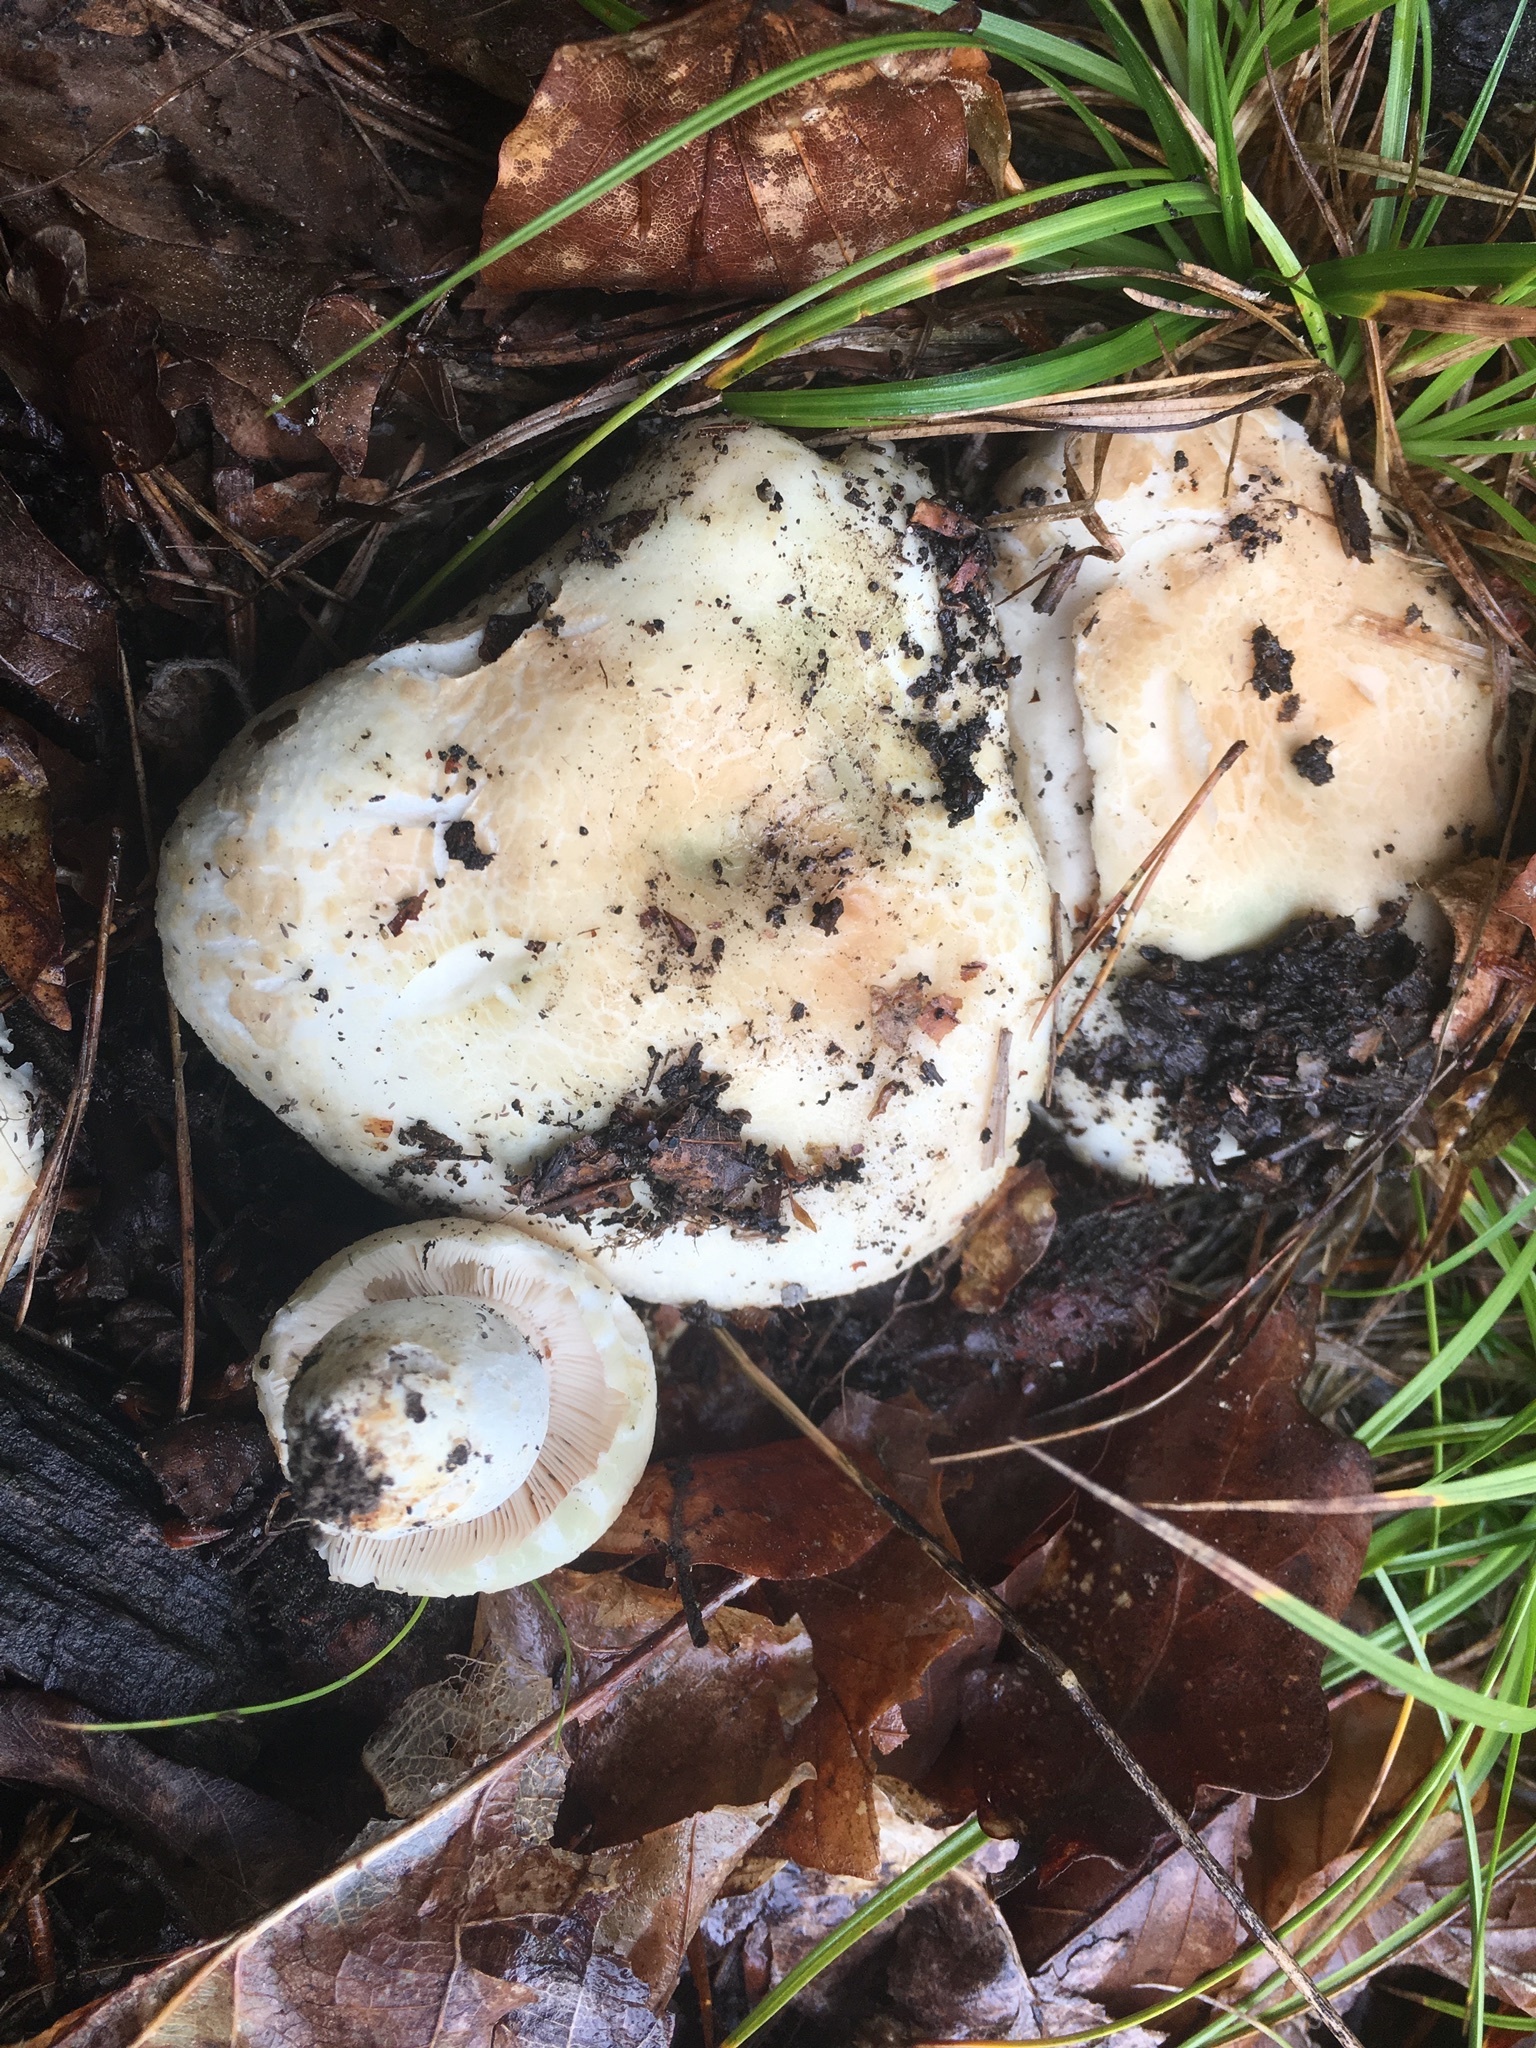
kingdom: Fungi
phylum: Basidiomycota
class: Agaricomycetes
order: Russulales
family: Russulaceae
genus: Russula
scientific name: Russula virescens
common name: Greencracked brittlegill
